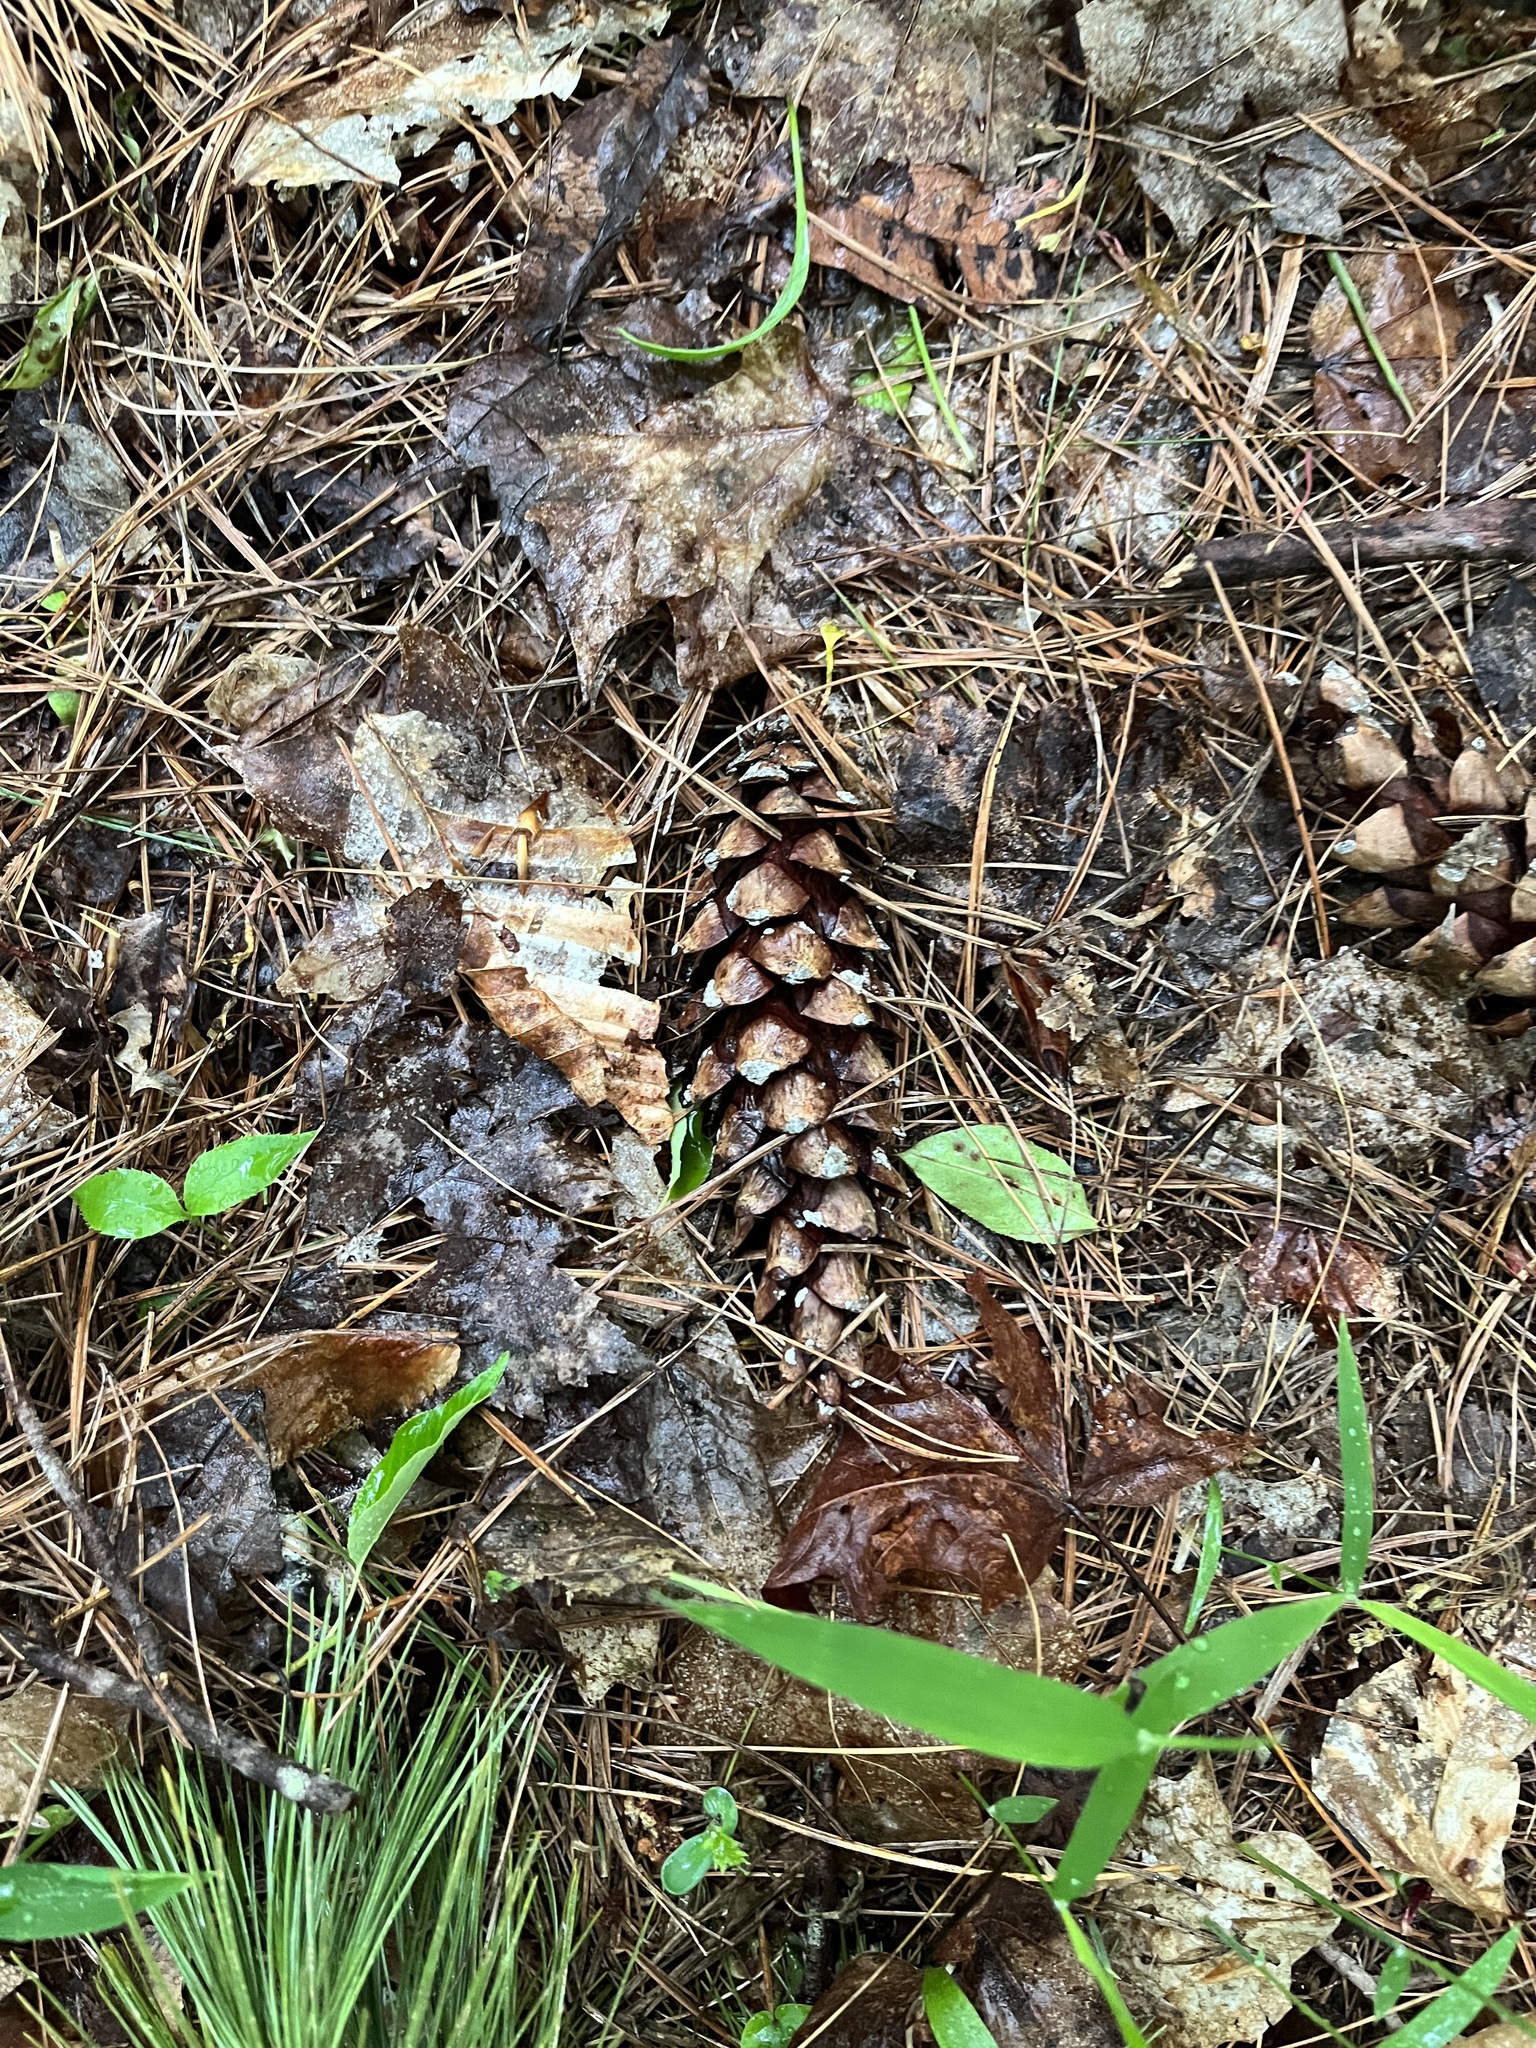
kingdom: Plantae
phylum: Tracheophyta
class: Pinopsida
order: Pinales
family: Pinaceae
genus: Pinus
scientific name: Pinus strobus
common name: Weymouth pine
